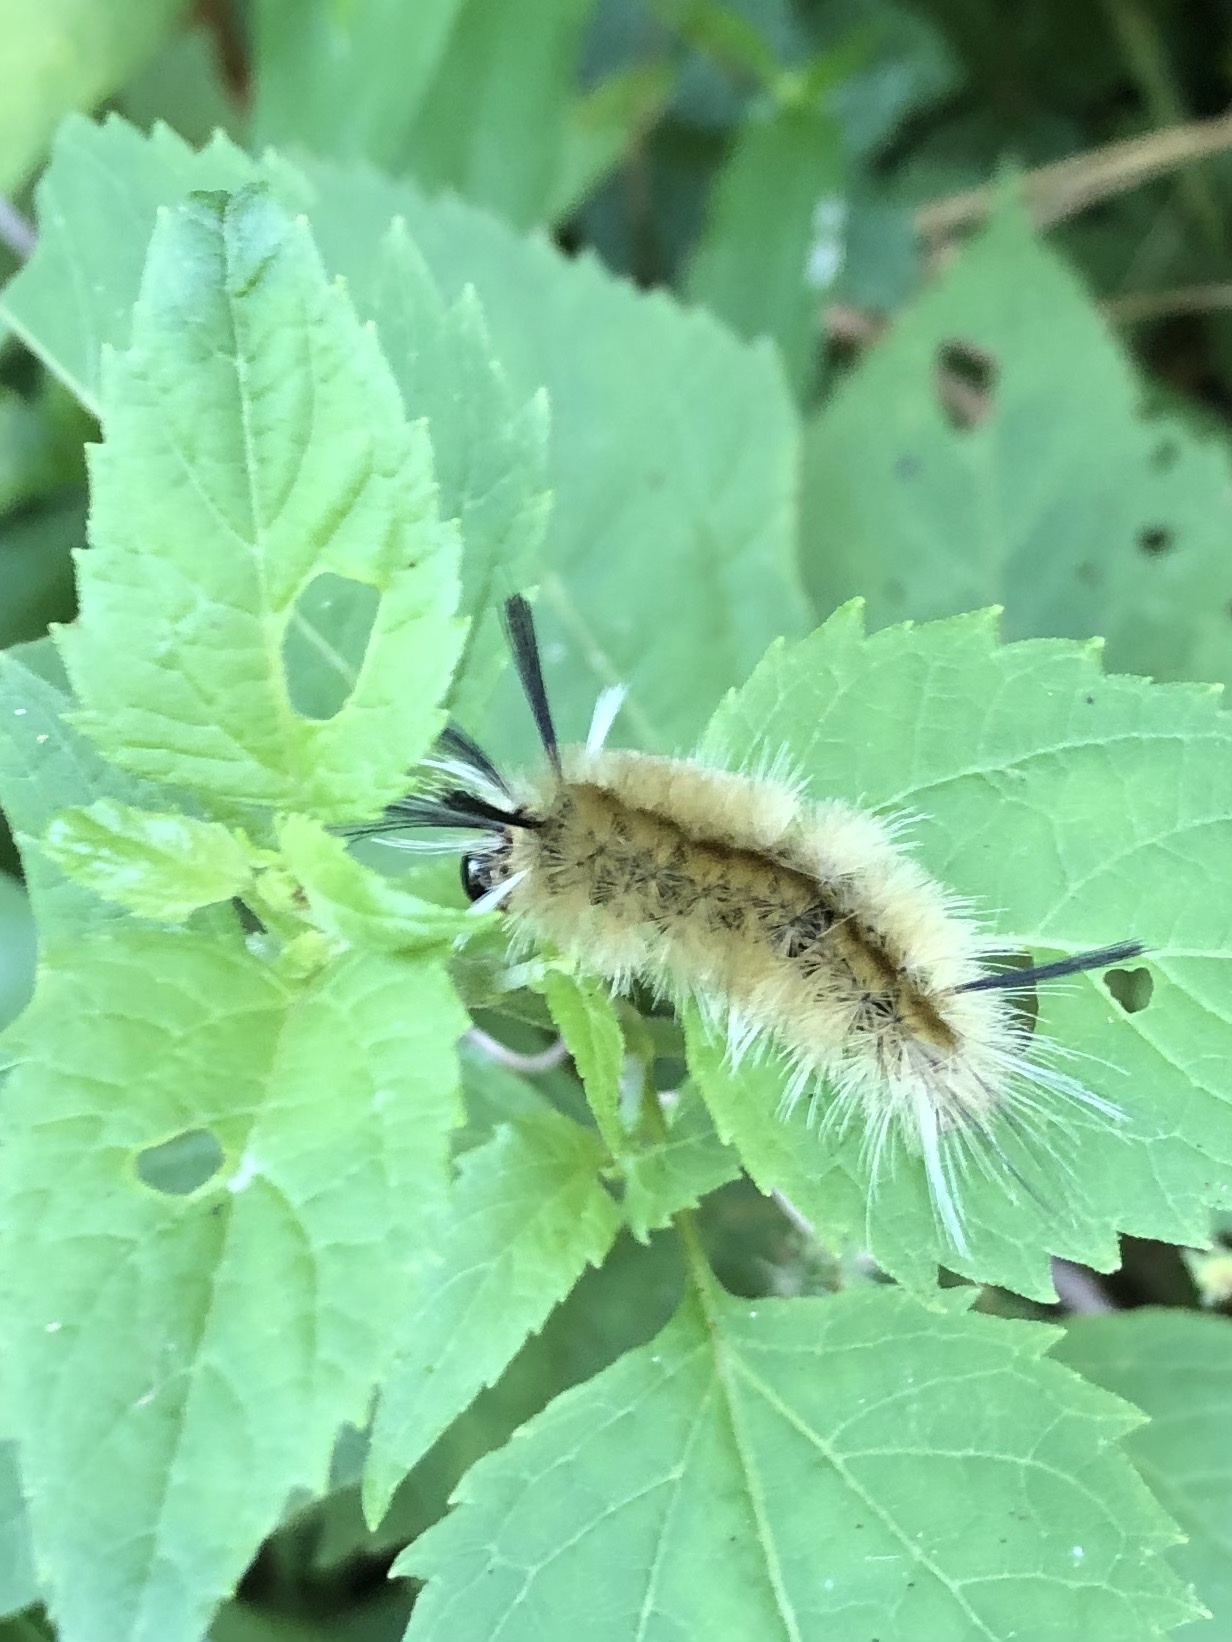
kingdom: Animalia
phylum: Arthropoda
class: Insecta
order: Lepidoptera
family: Erebidae
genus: Halysidota
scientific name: Halysidota tessellaris
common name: Banded tussock moth
